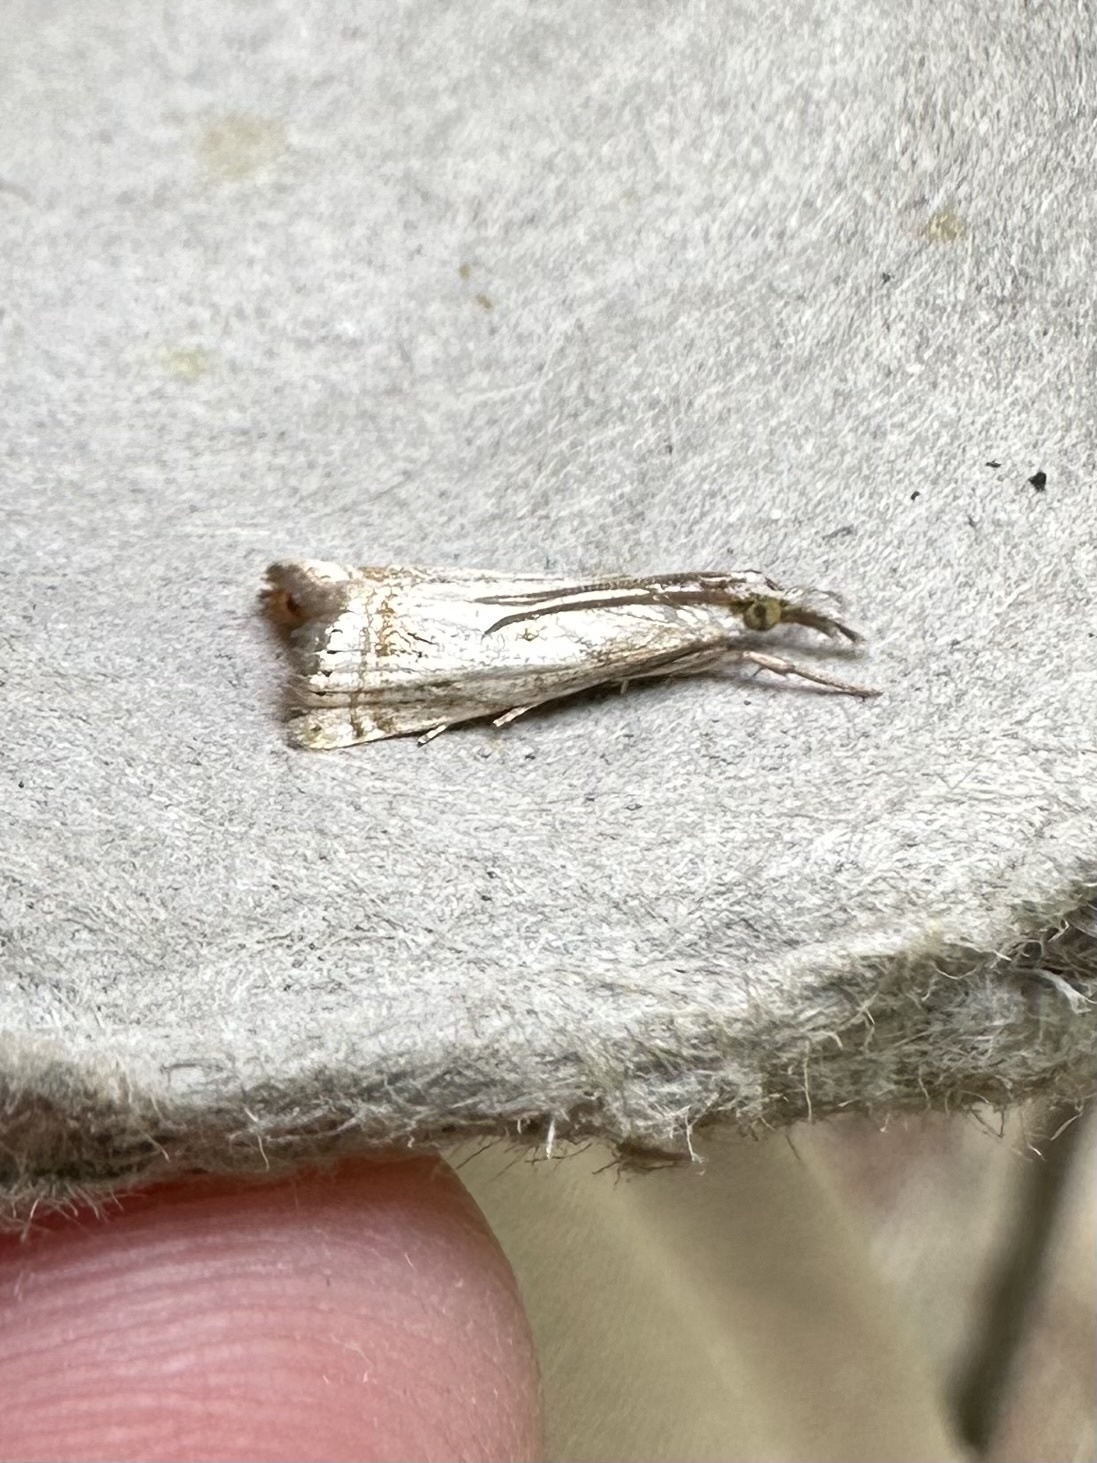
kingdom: Animalia
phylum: Arthropoda
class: Insecta
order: Lepidoptera
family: Crambidae
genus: Microcrambus
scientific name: Microcrambus elegans
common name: Elegant grass-veneer
